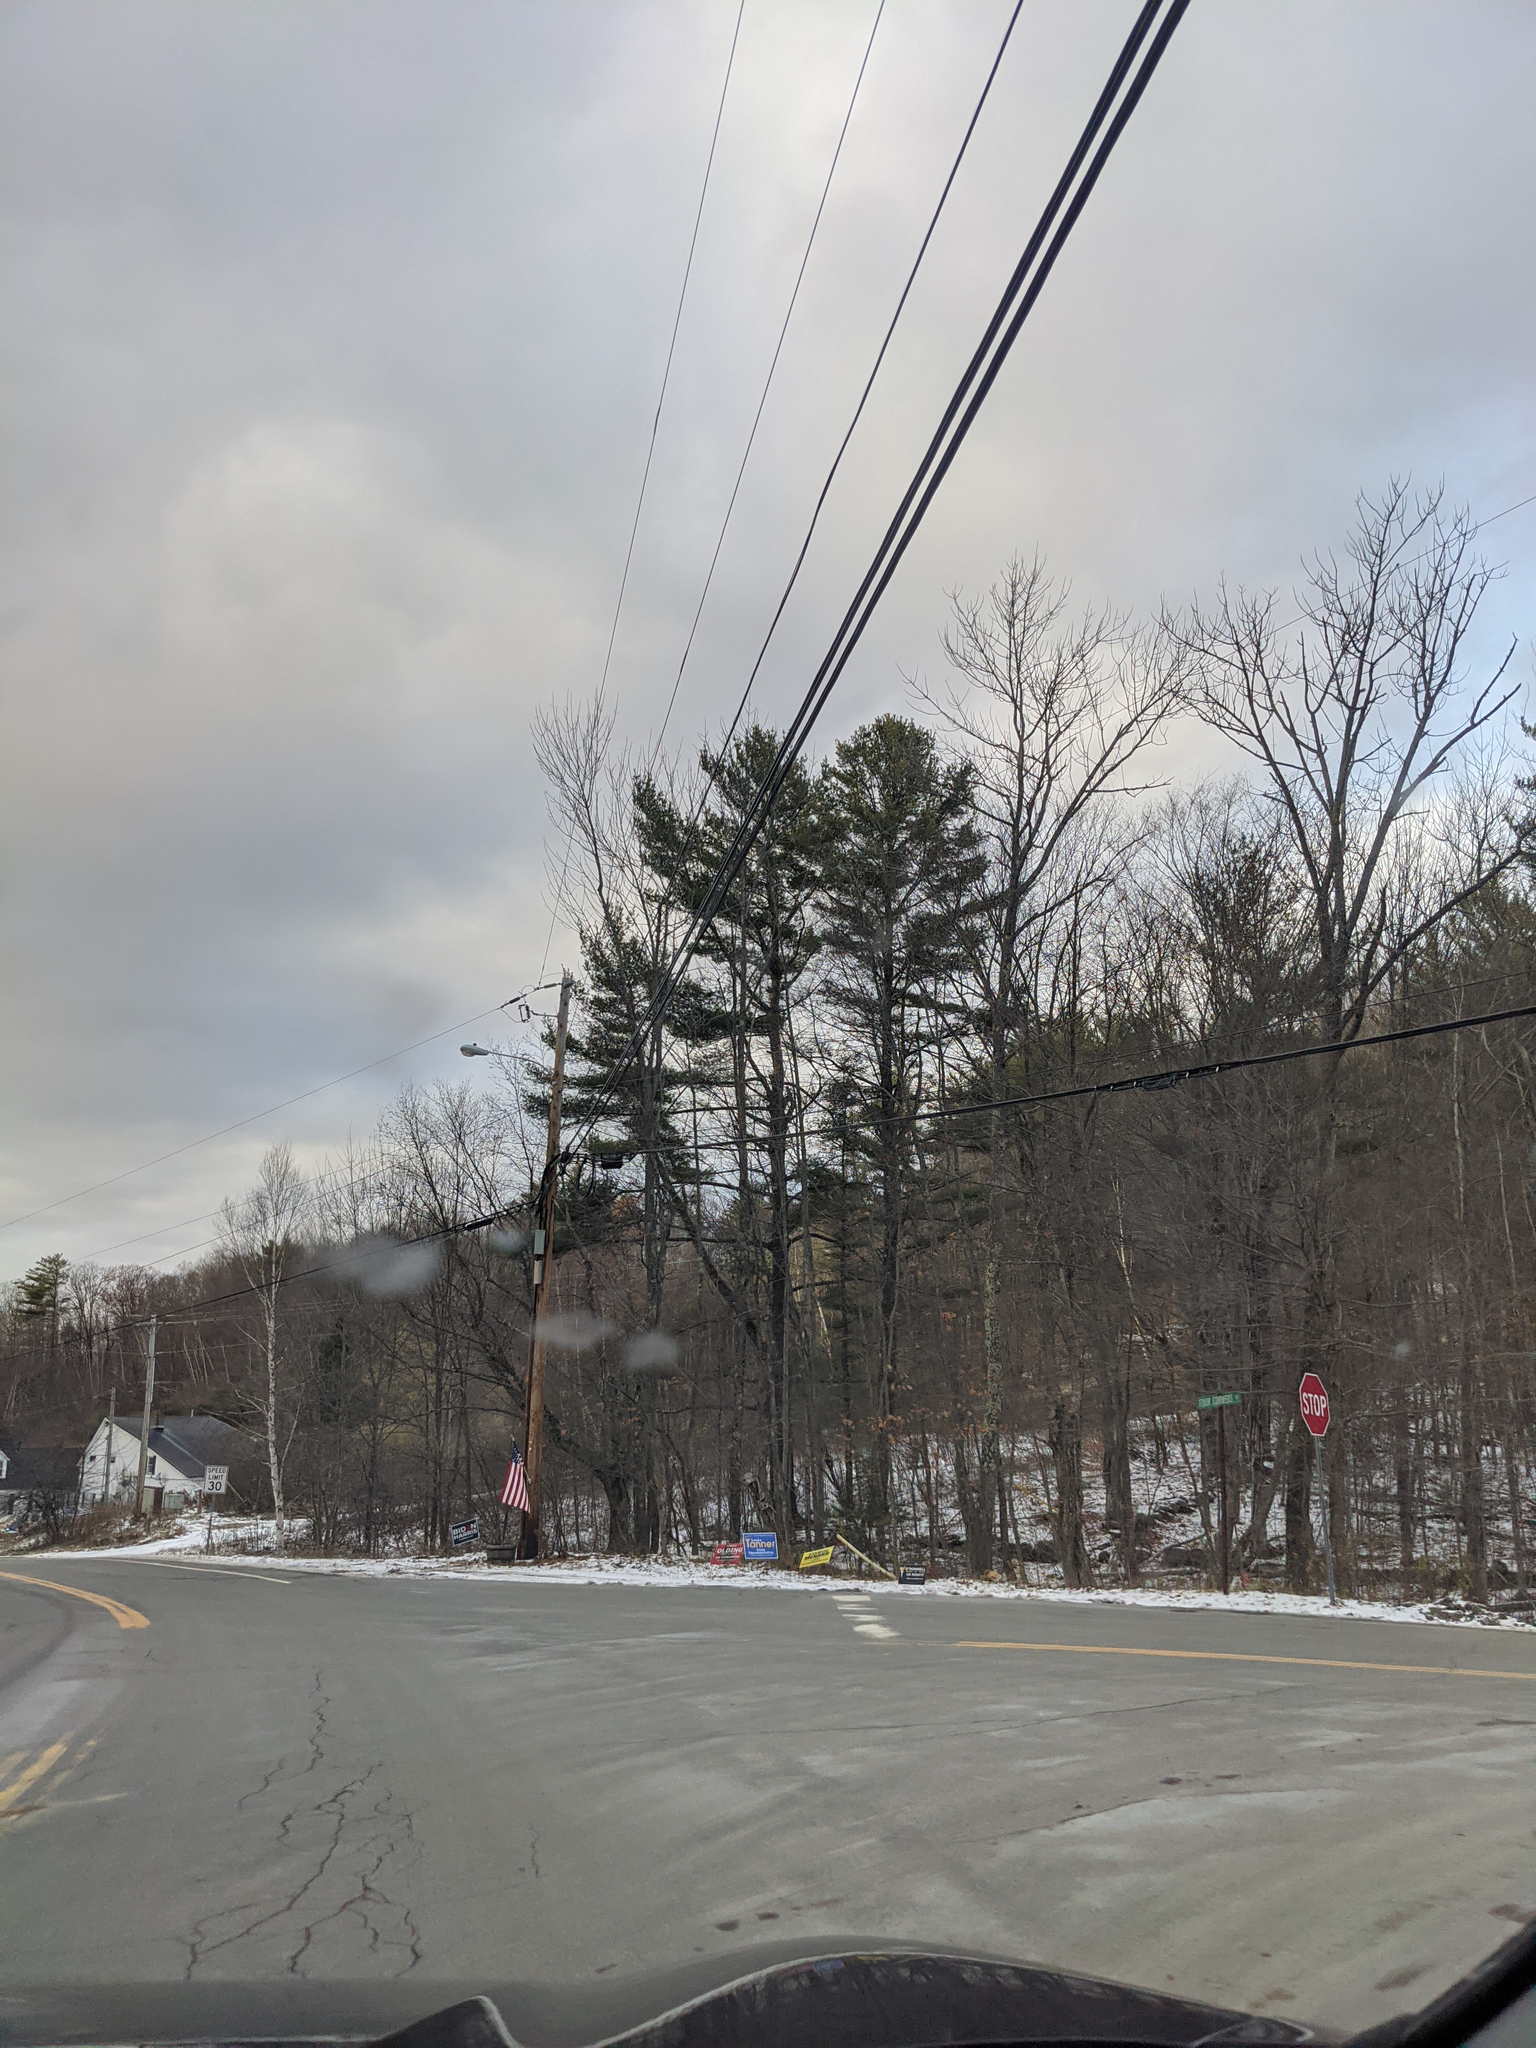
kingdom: Plantae
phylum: Tracheophyta
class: Pinopsida
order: Pinales
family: Pinaceae
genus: Pinus
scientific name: Pinus strobus
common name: Weymouth pine
